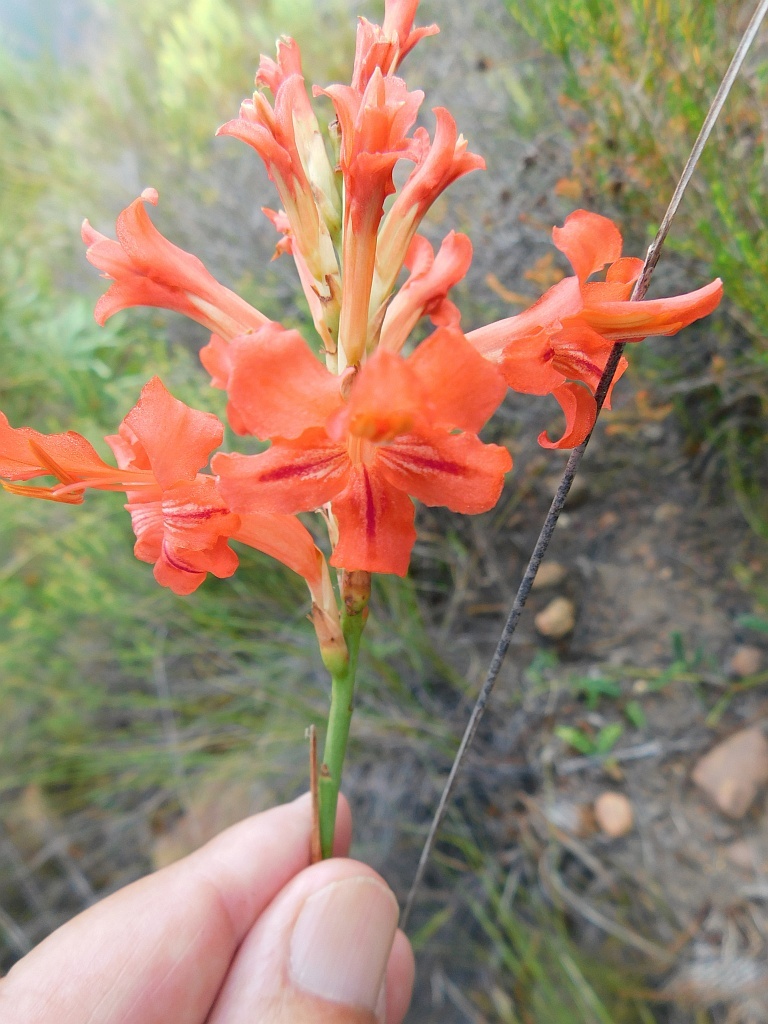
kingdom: Plantae
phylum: Tracheophyta
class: Liliopsida
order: Asparagales
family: Iridaceae
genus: Tritoniopsis
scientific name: Tritoniopsis triticea
